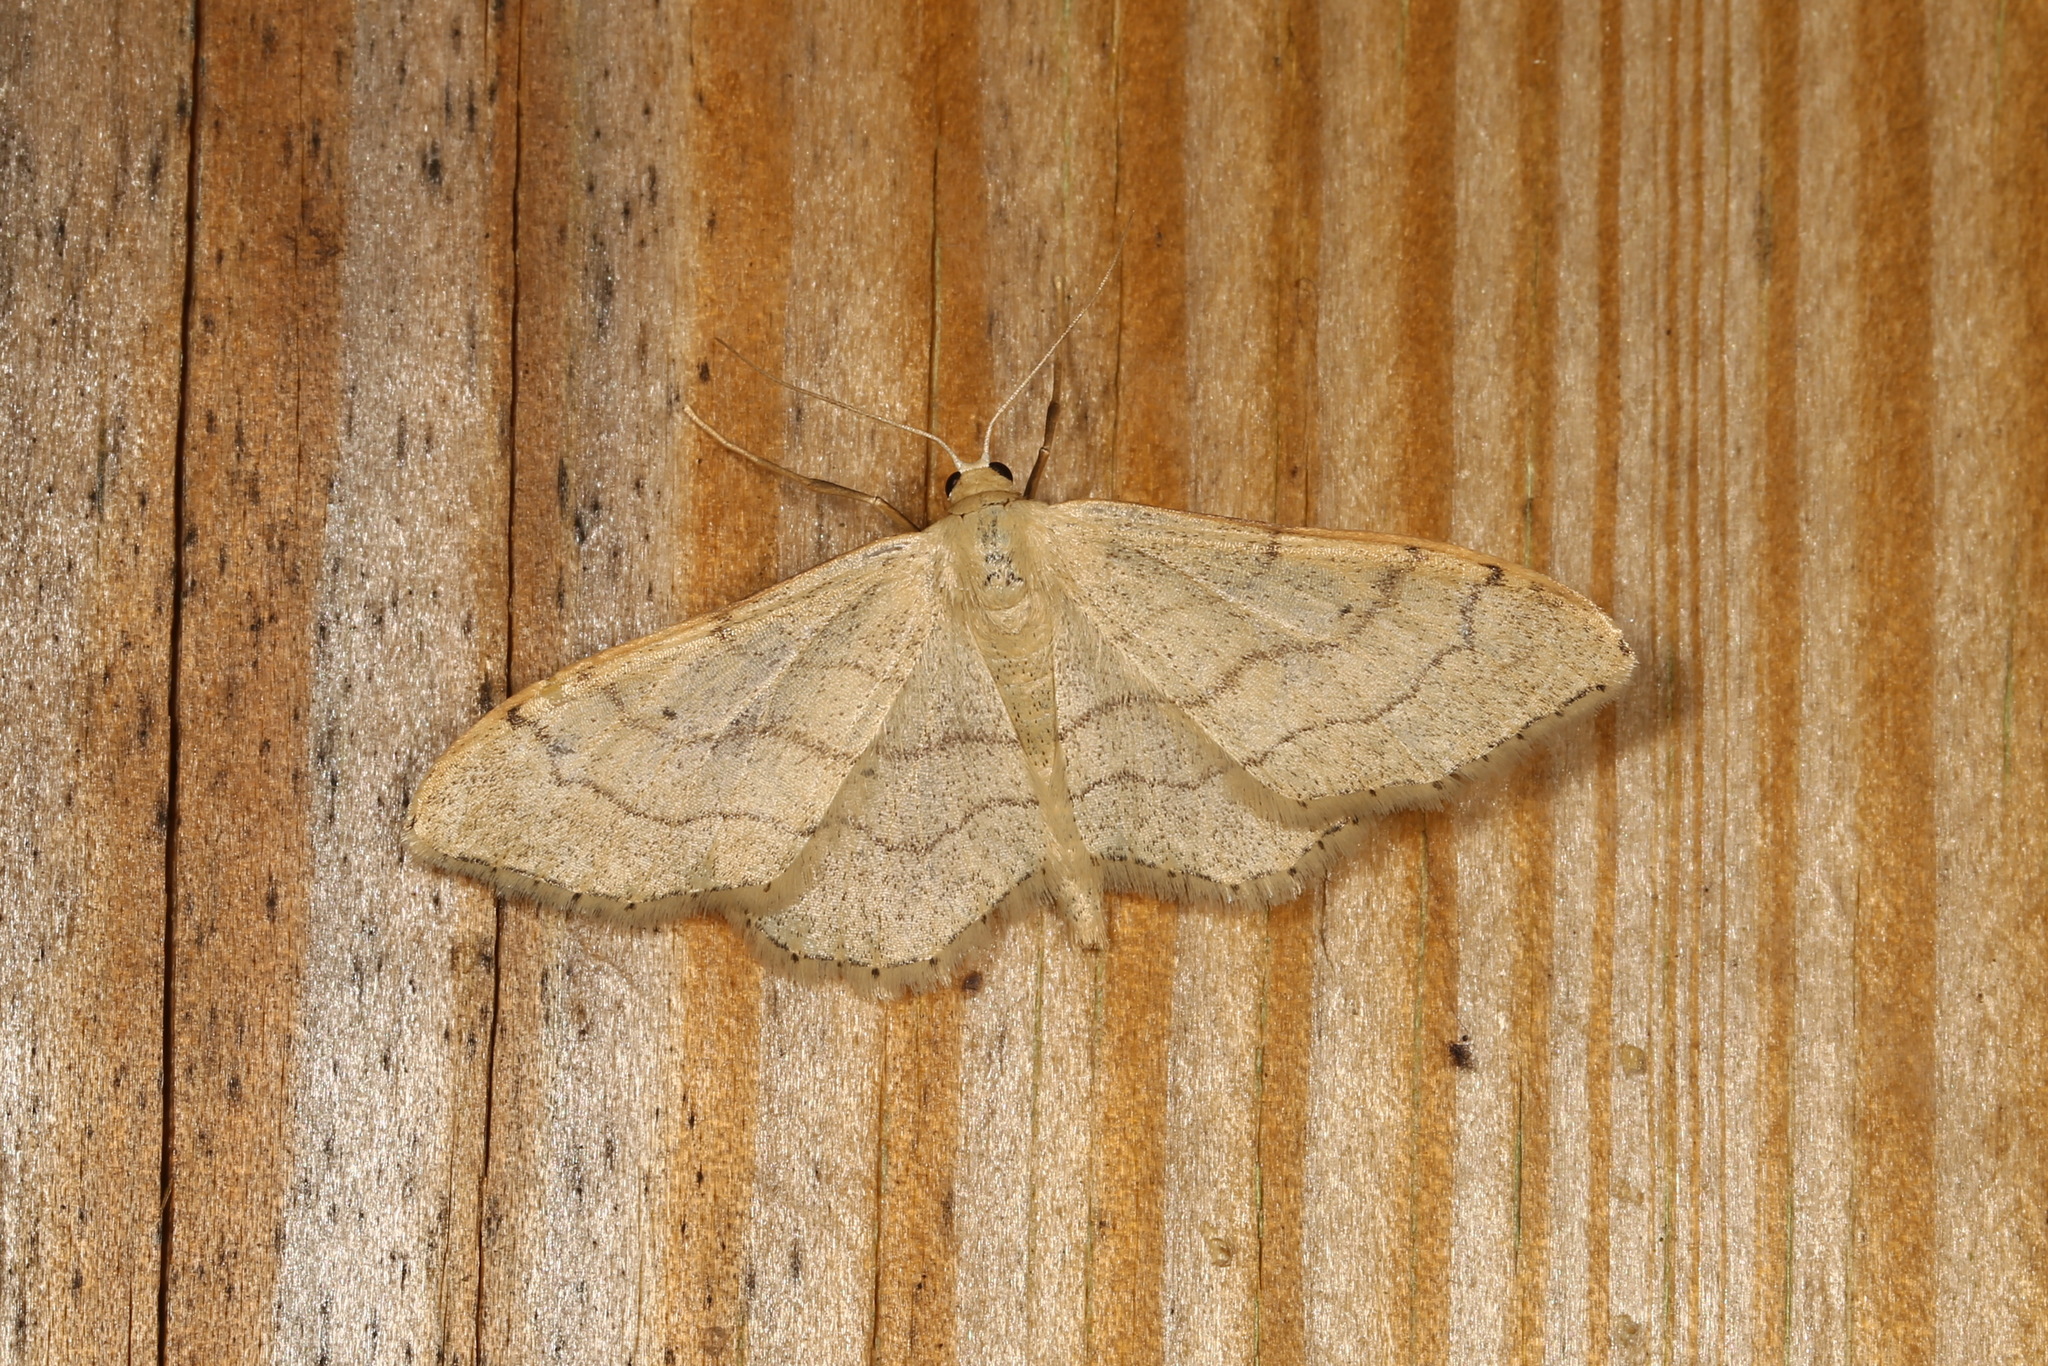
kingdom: Animalia
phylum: Arthropoda
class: Insecta
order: Lepidoptera
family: Geometridae
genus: Idaea
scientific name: Idaea aversata
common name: Riband wave
